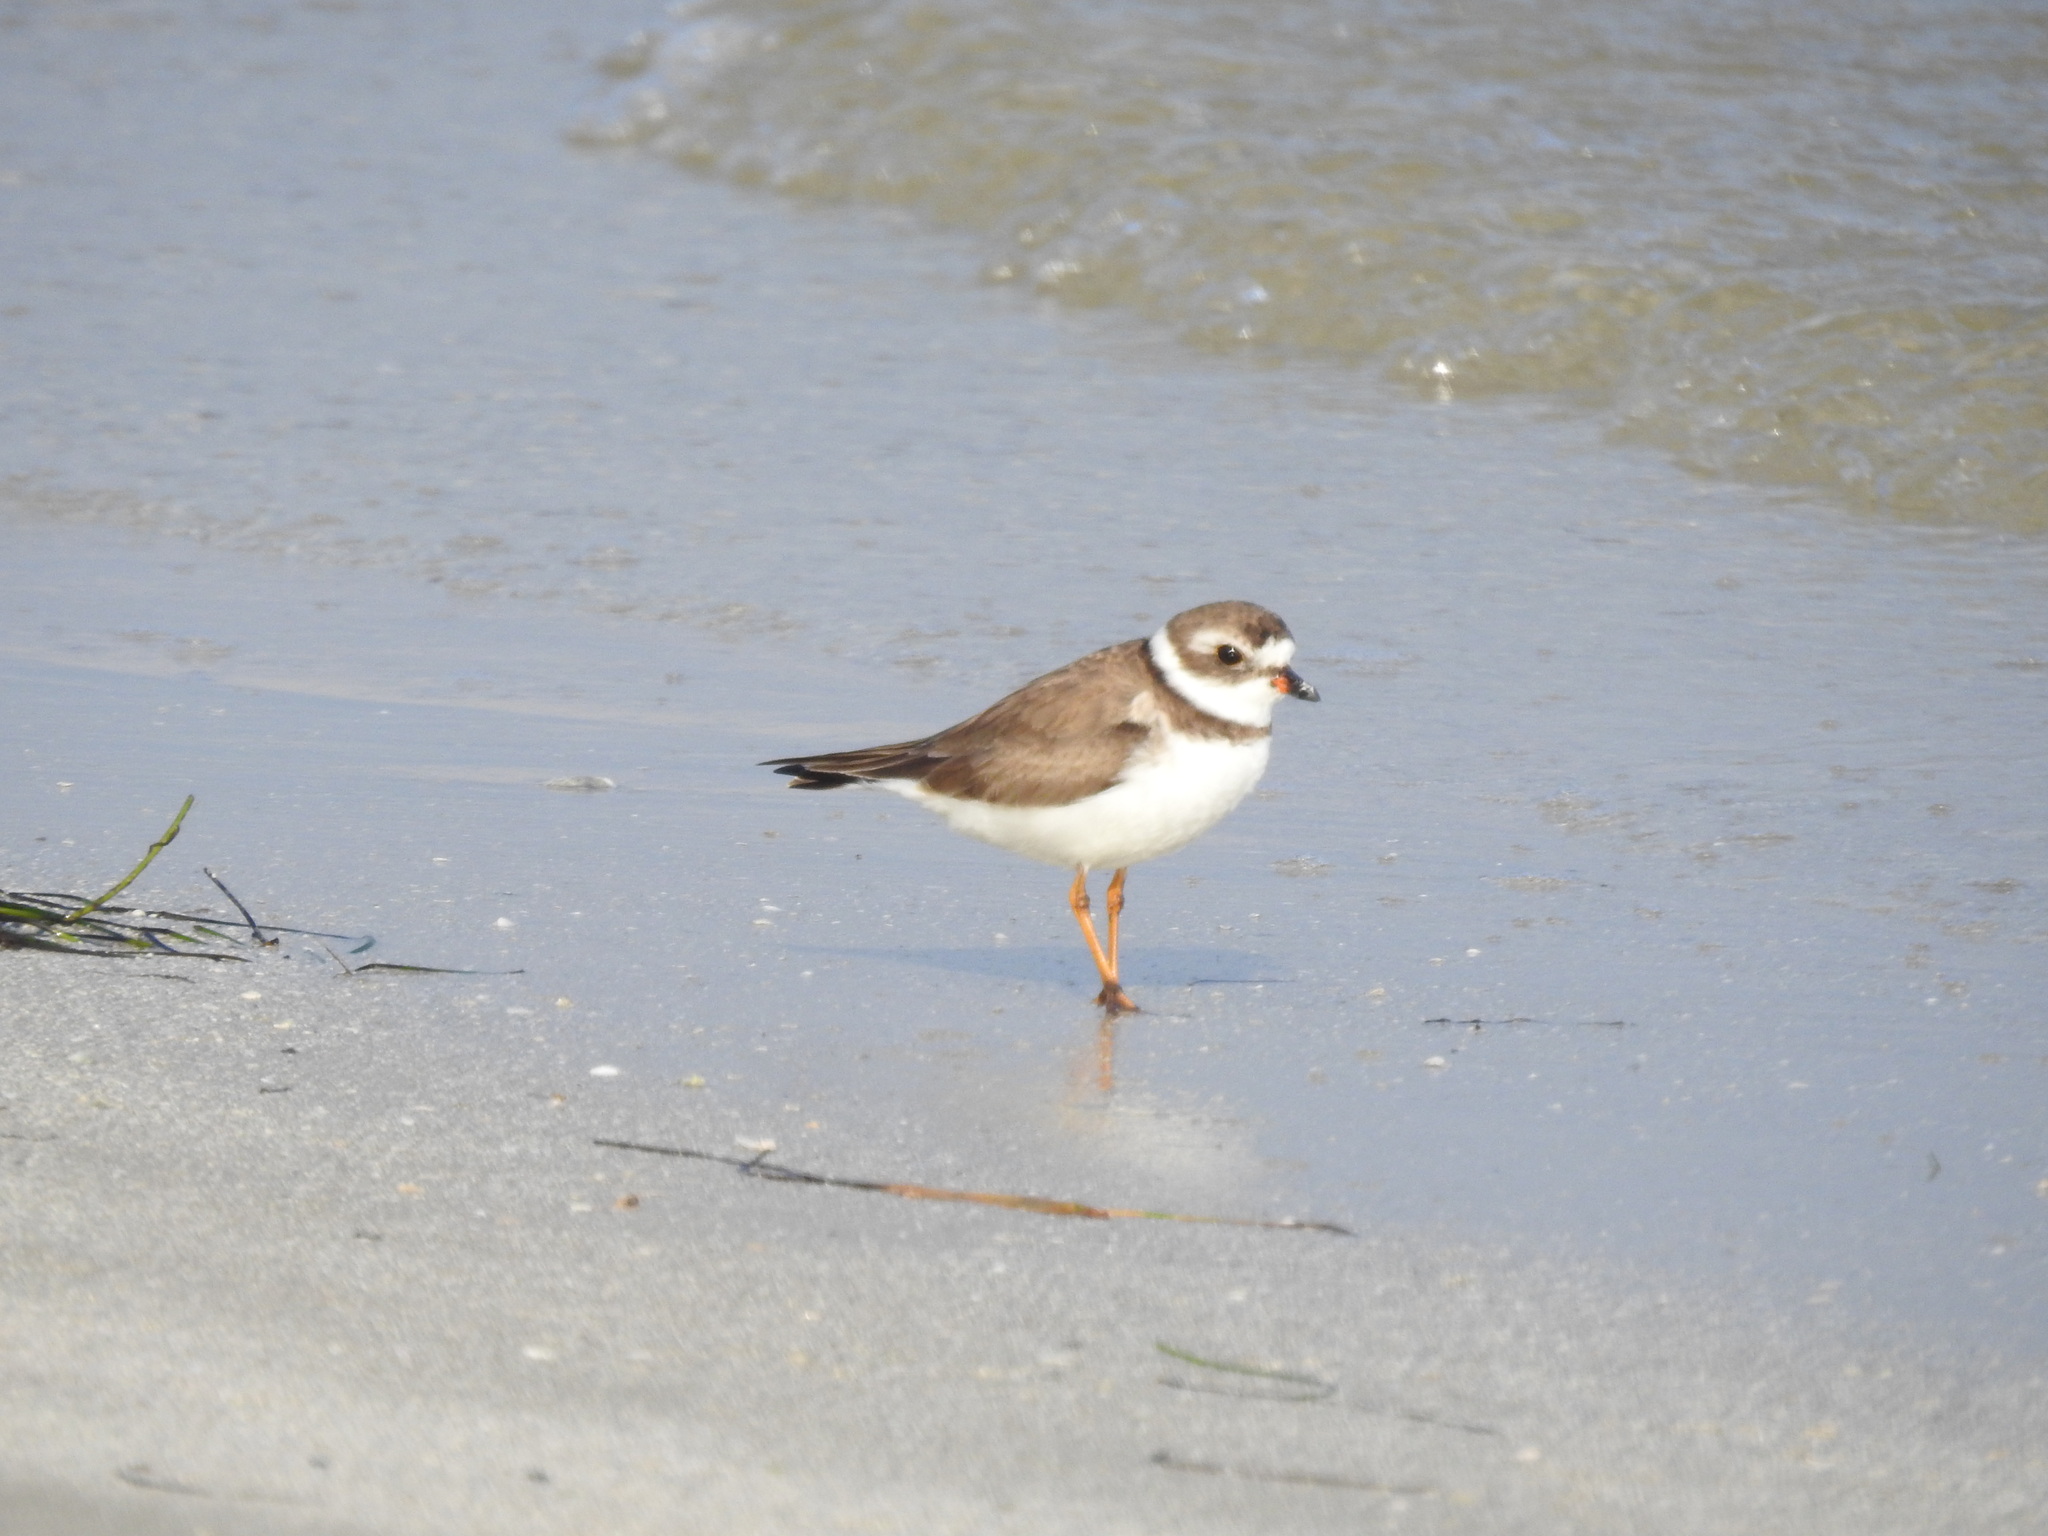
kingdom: Animalia
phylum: Chordata
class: Aves
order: Charadriiformes
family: Charadriidae
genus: Charadrius
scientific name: Charadrius semipalmatus
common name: Semipalmated plover
